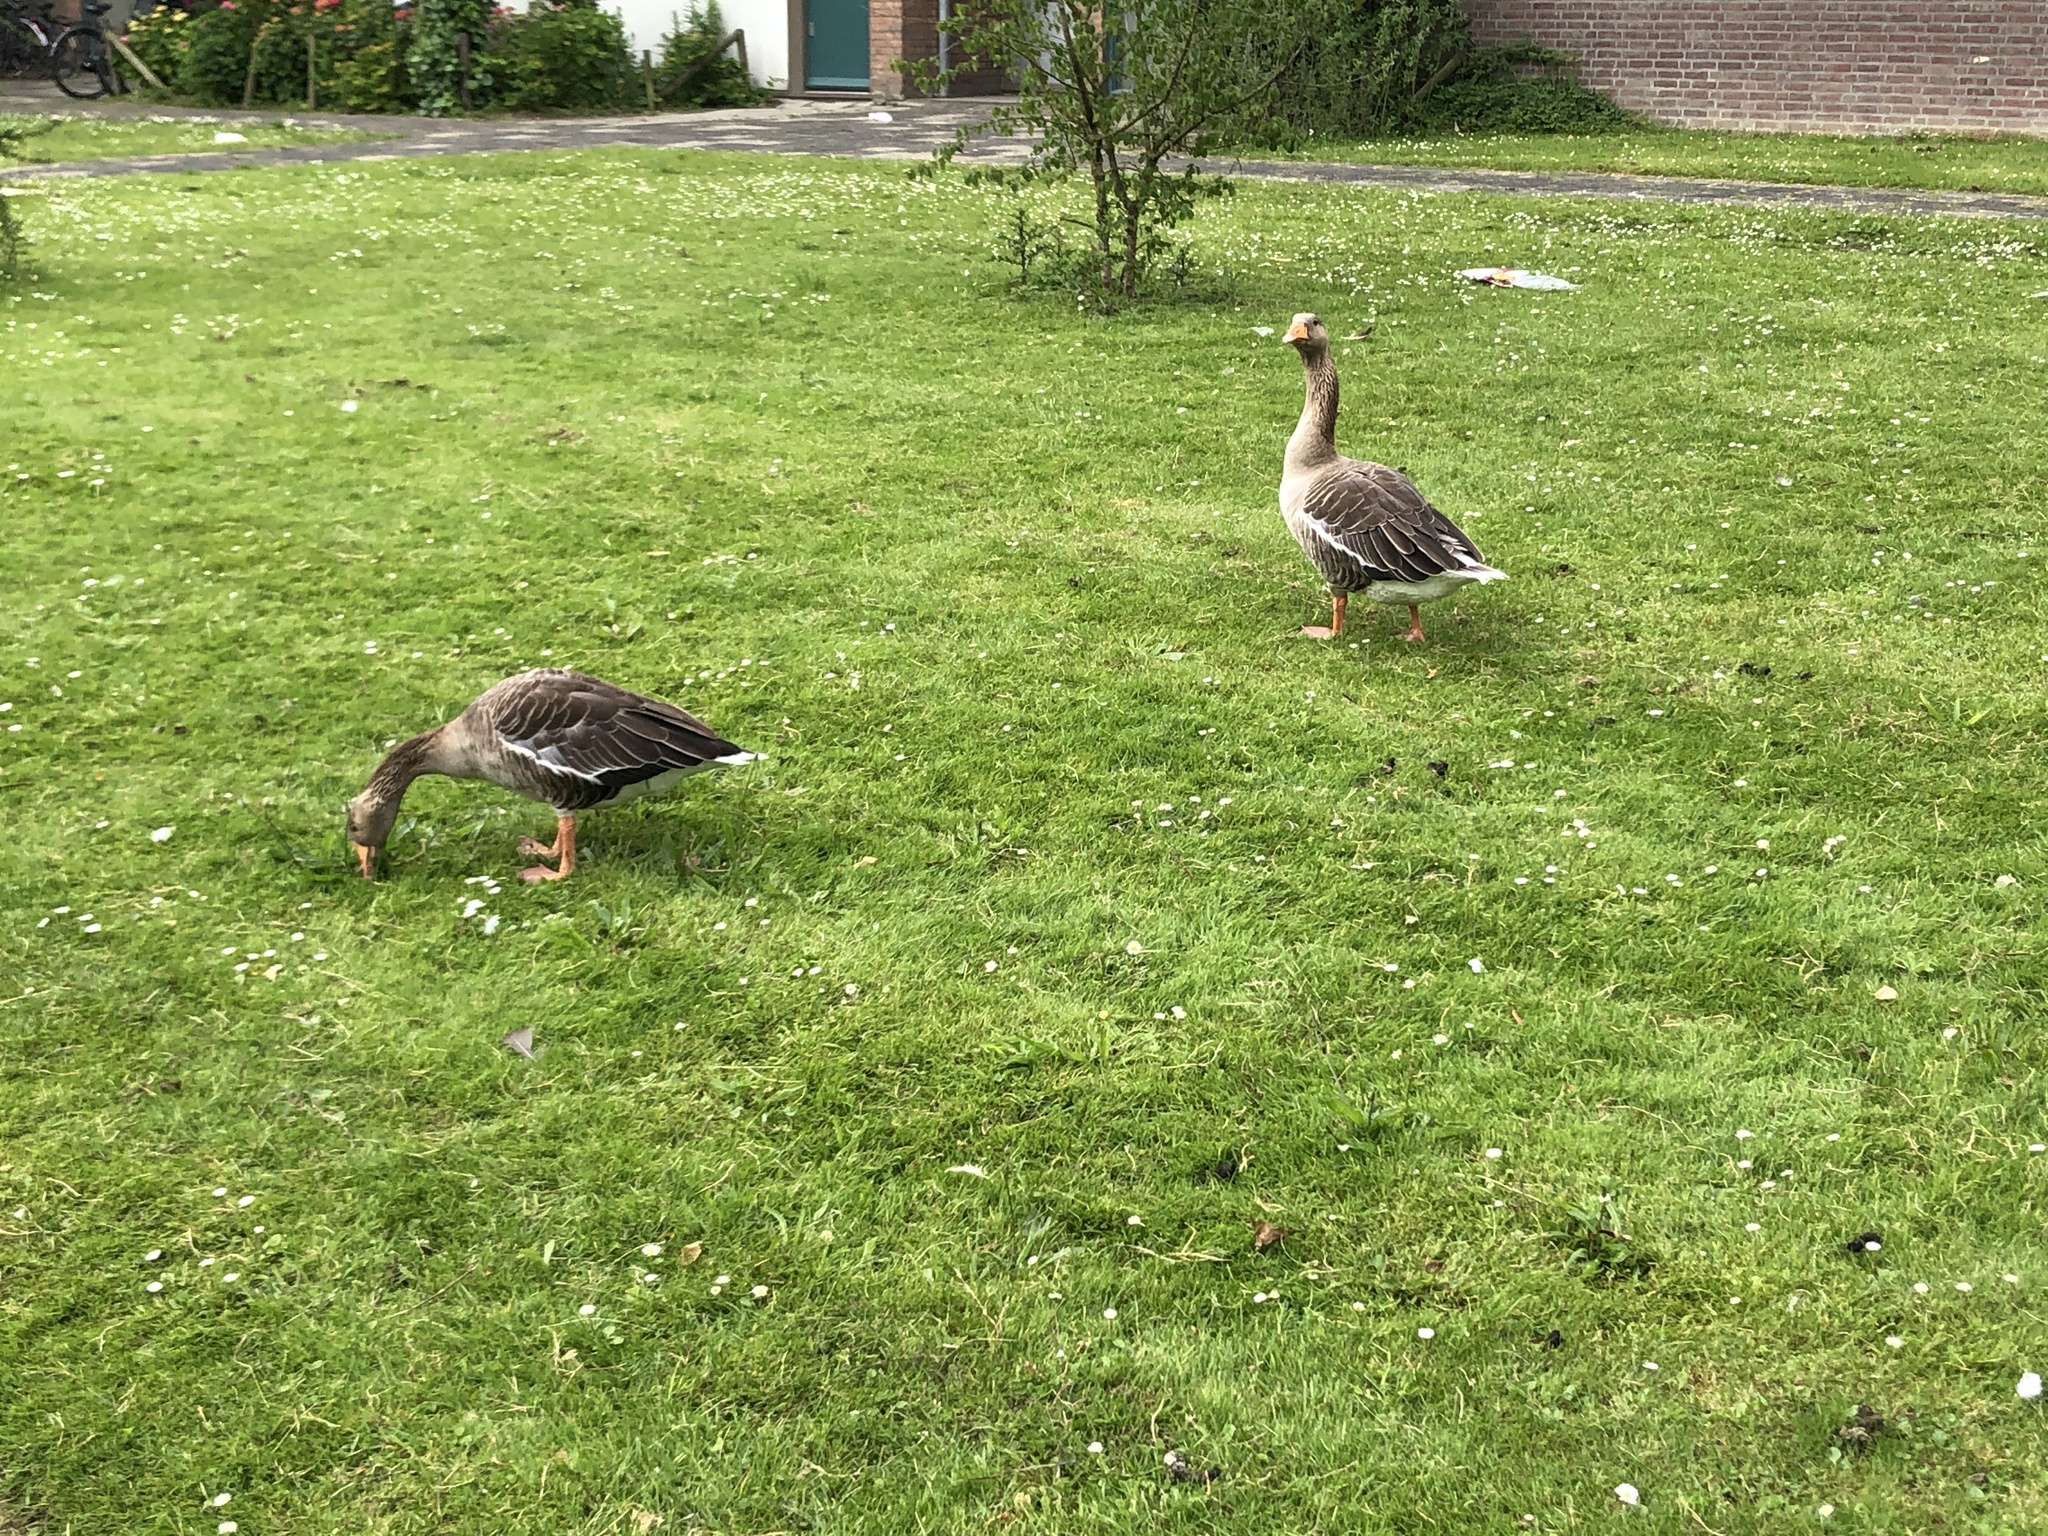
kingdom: Animalia
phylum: Chordata
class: Aves
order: Anseriformes
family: Anatidae
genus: Anser
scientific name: Anser anser
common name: Greylag goose
